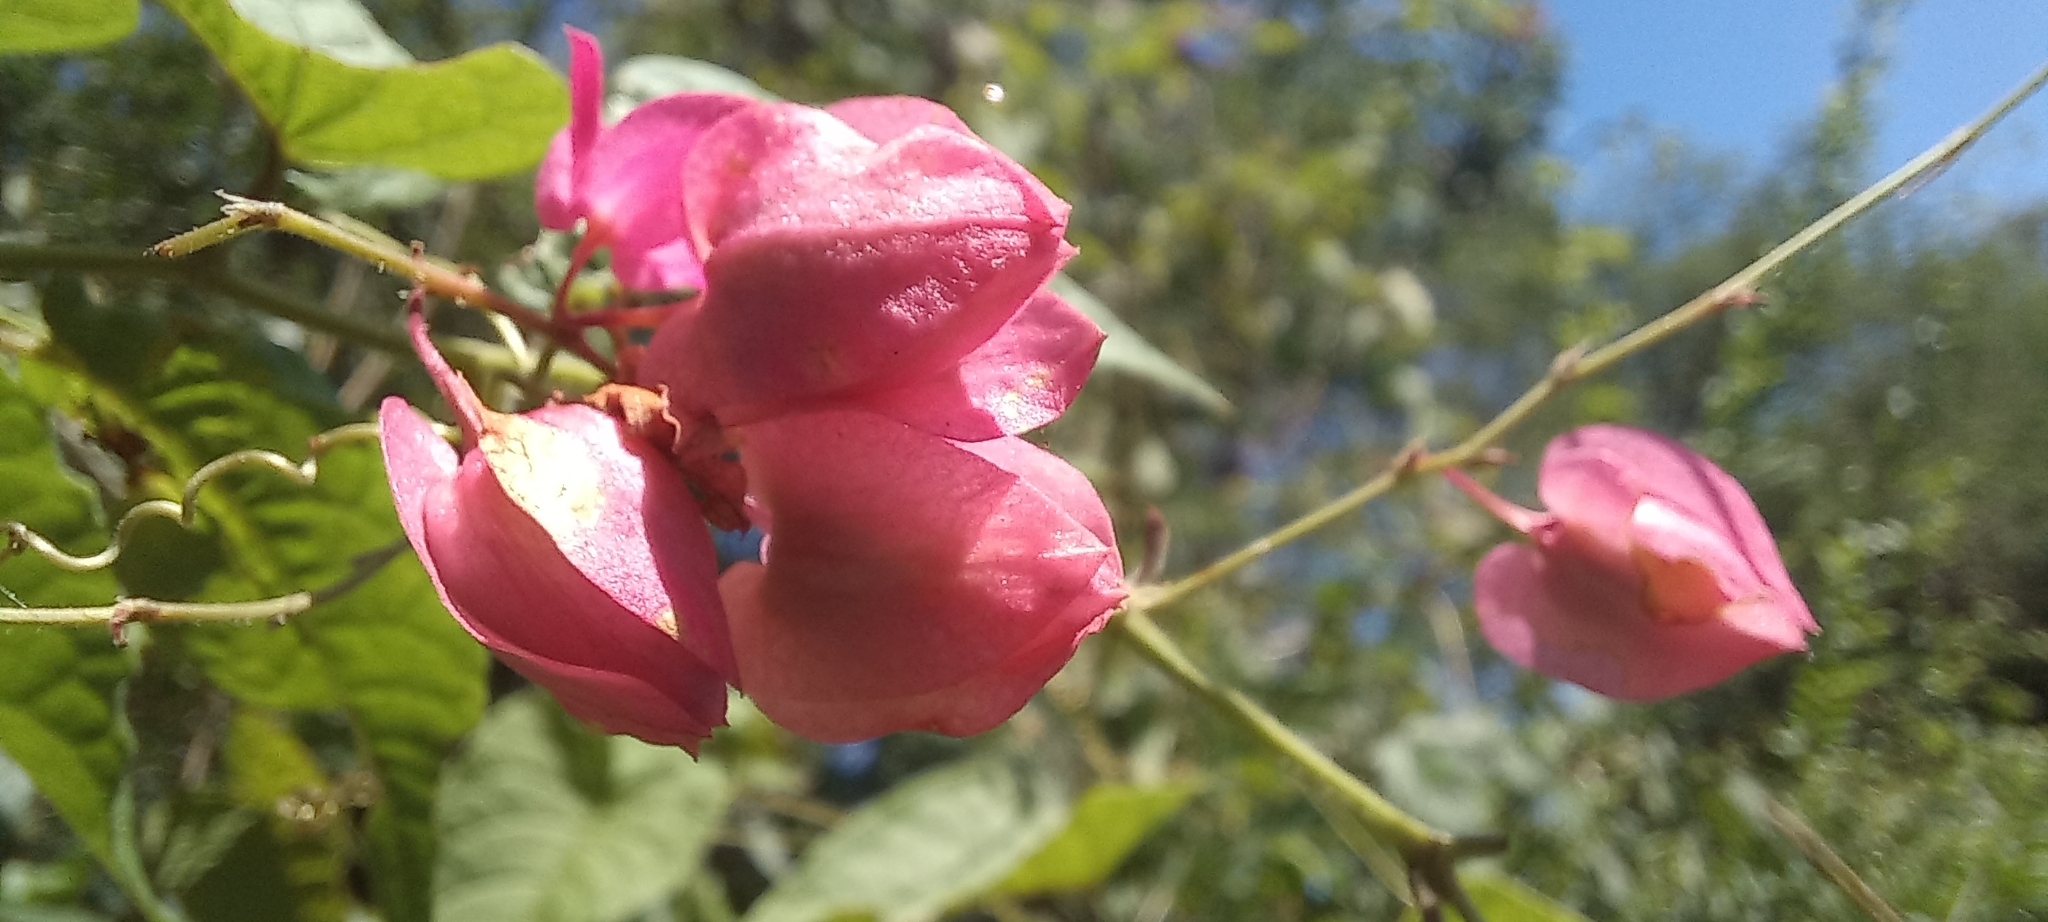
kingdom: Plantae
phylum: Tracheophyta
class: Magnoliopsida
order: Caryophyllales
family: Polygonaceae
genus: Antigonon
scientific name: Antigonon leptopus
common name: Coral vine
